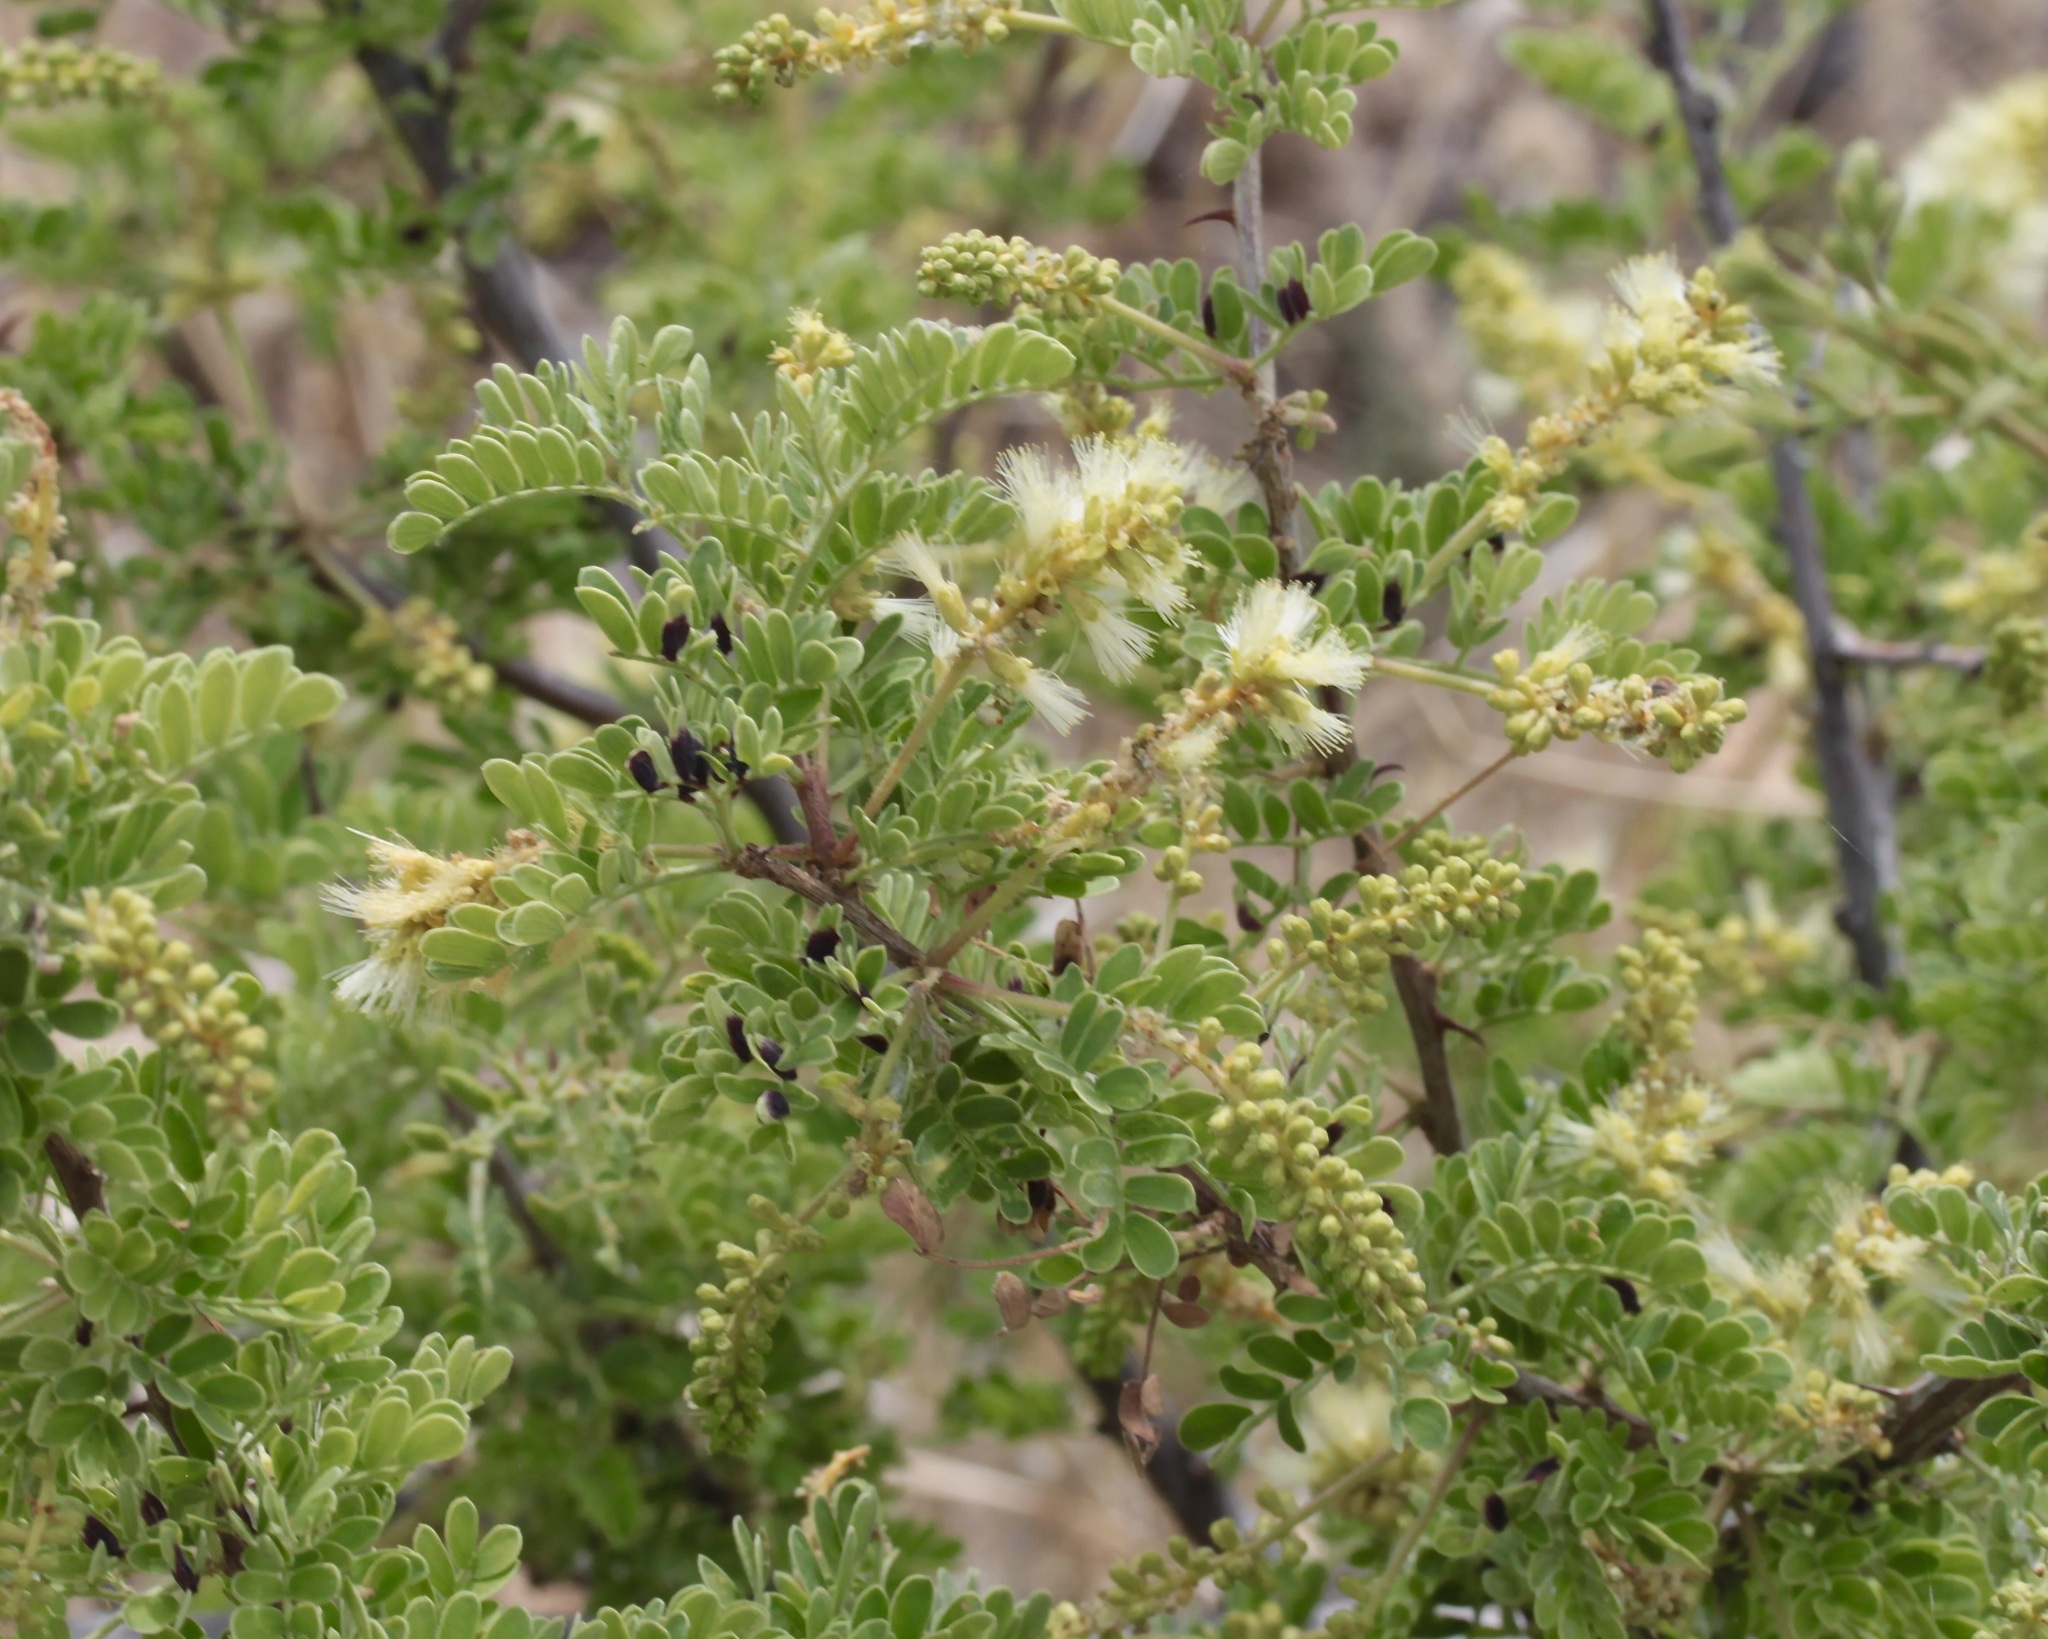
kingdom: Plantae
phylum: Tracheophyta
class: Magnoliopsida
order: Fabales
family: Fabaceae
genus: Senegalia
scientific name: Senegalia greggii
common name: Texas-mimosa
